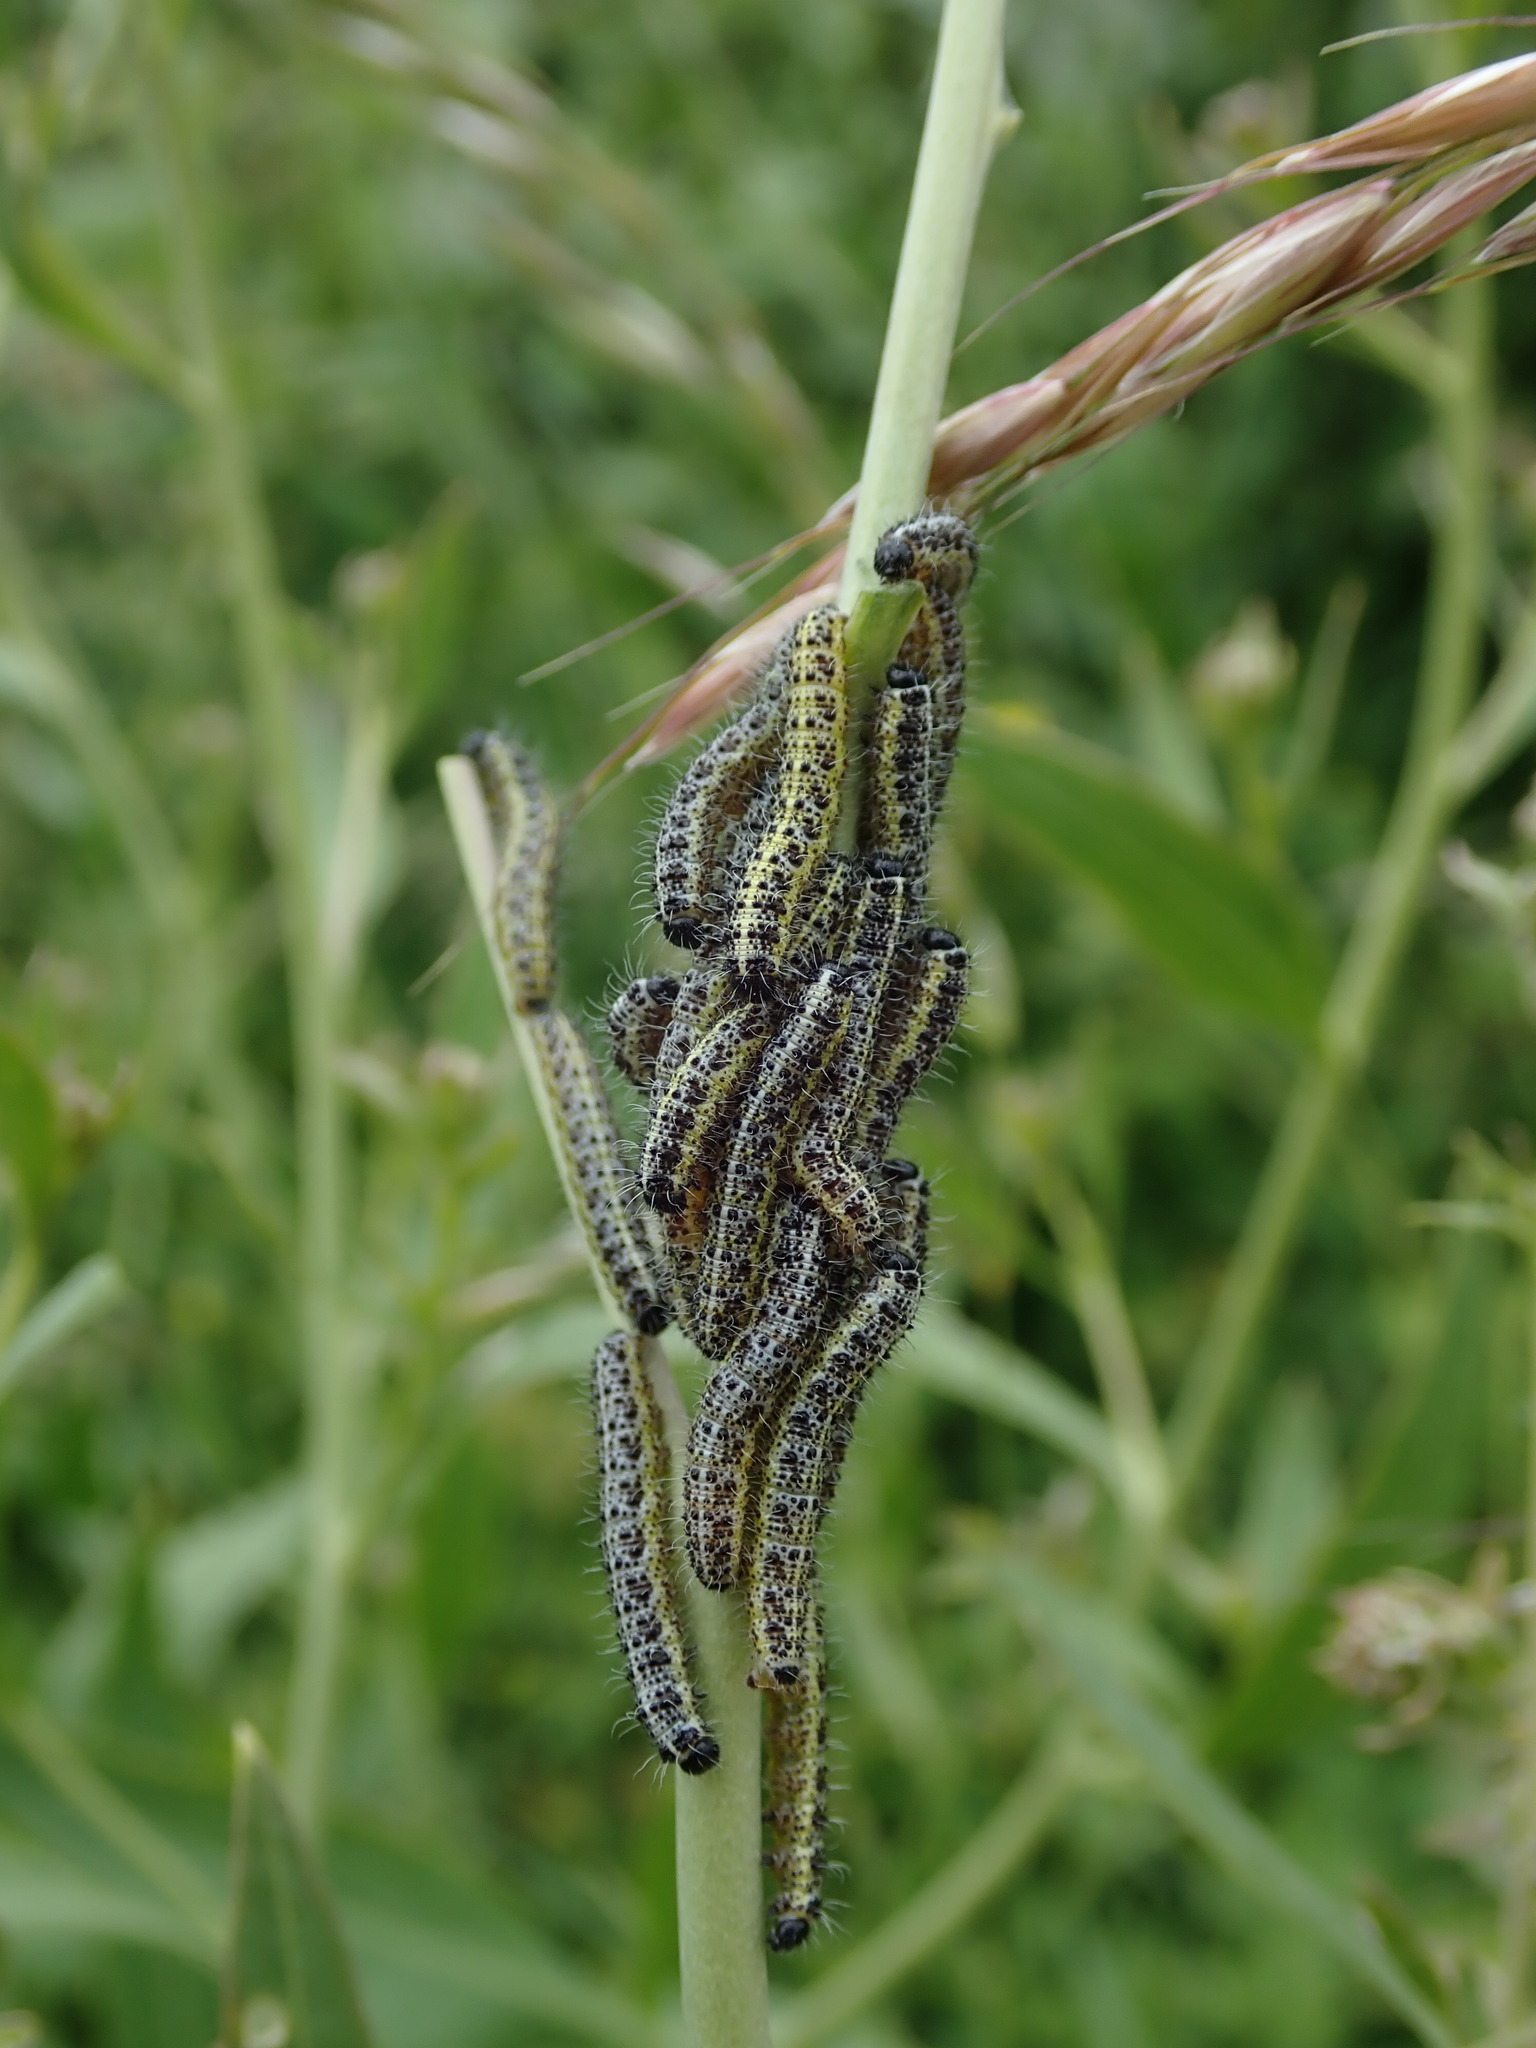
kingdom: Animalia
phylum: Arthropoda
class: Insecta
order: Lepidoptera
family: Pieridae
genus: Pieris
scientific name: Pieris brassicae
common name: Large white
